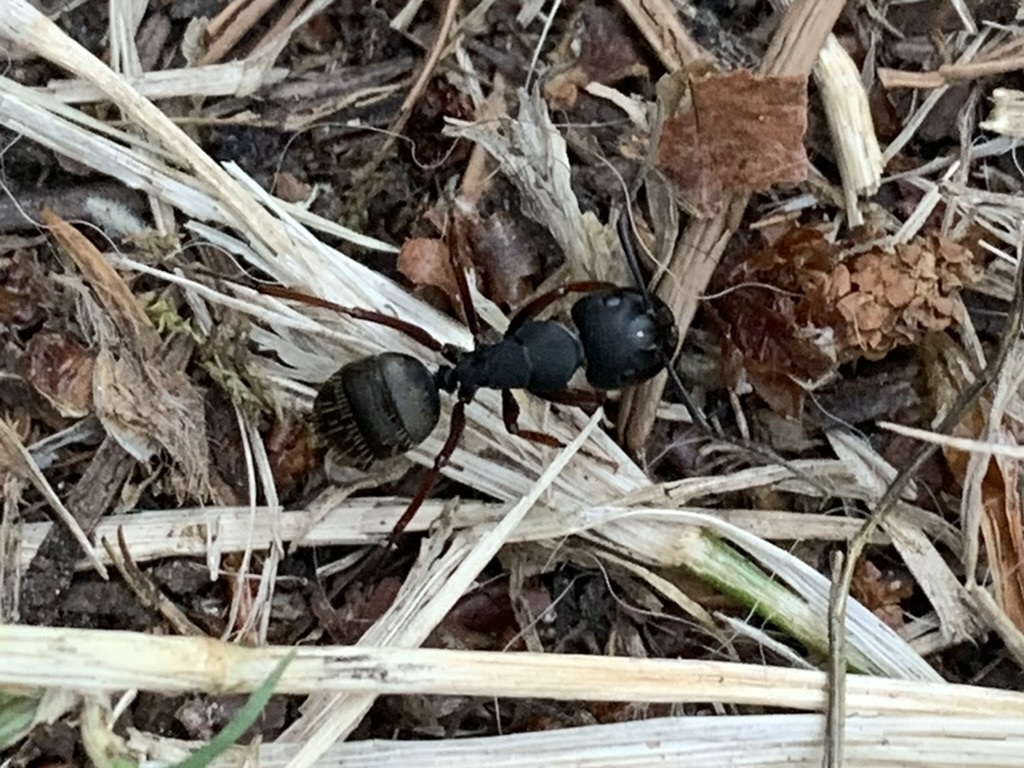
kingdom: Animalia
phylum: Arthropoda
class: Insecta
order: Hymenoptera
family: Formicidae
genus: Camponotus
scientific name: Camponotus modoc
